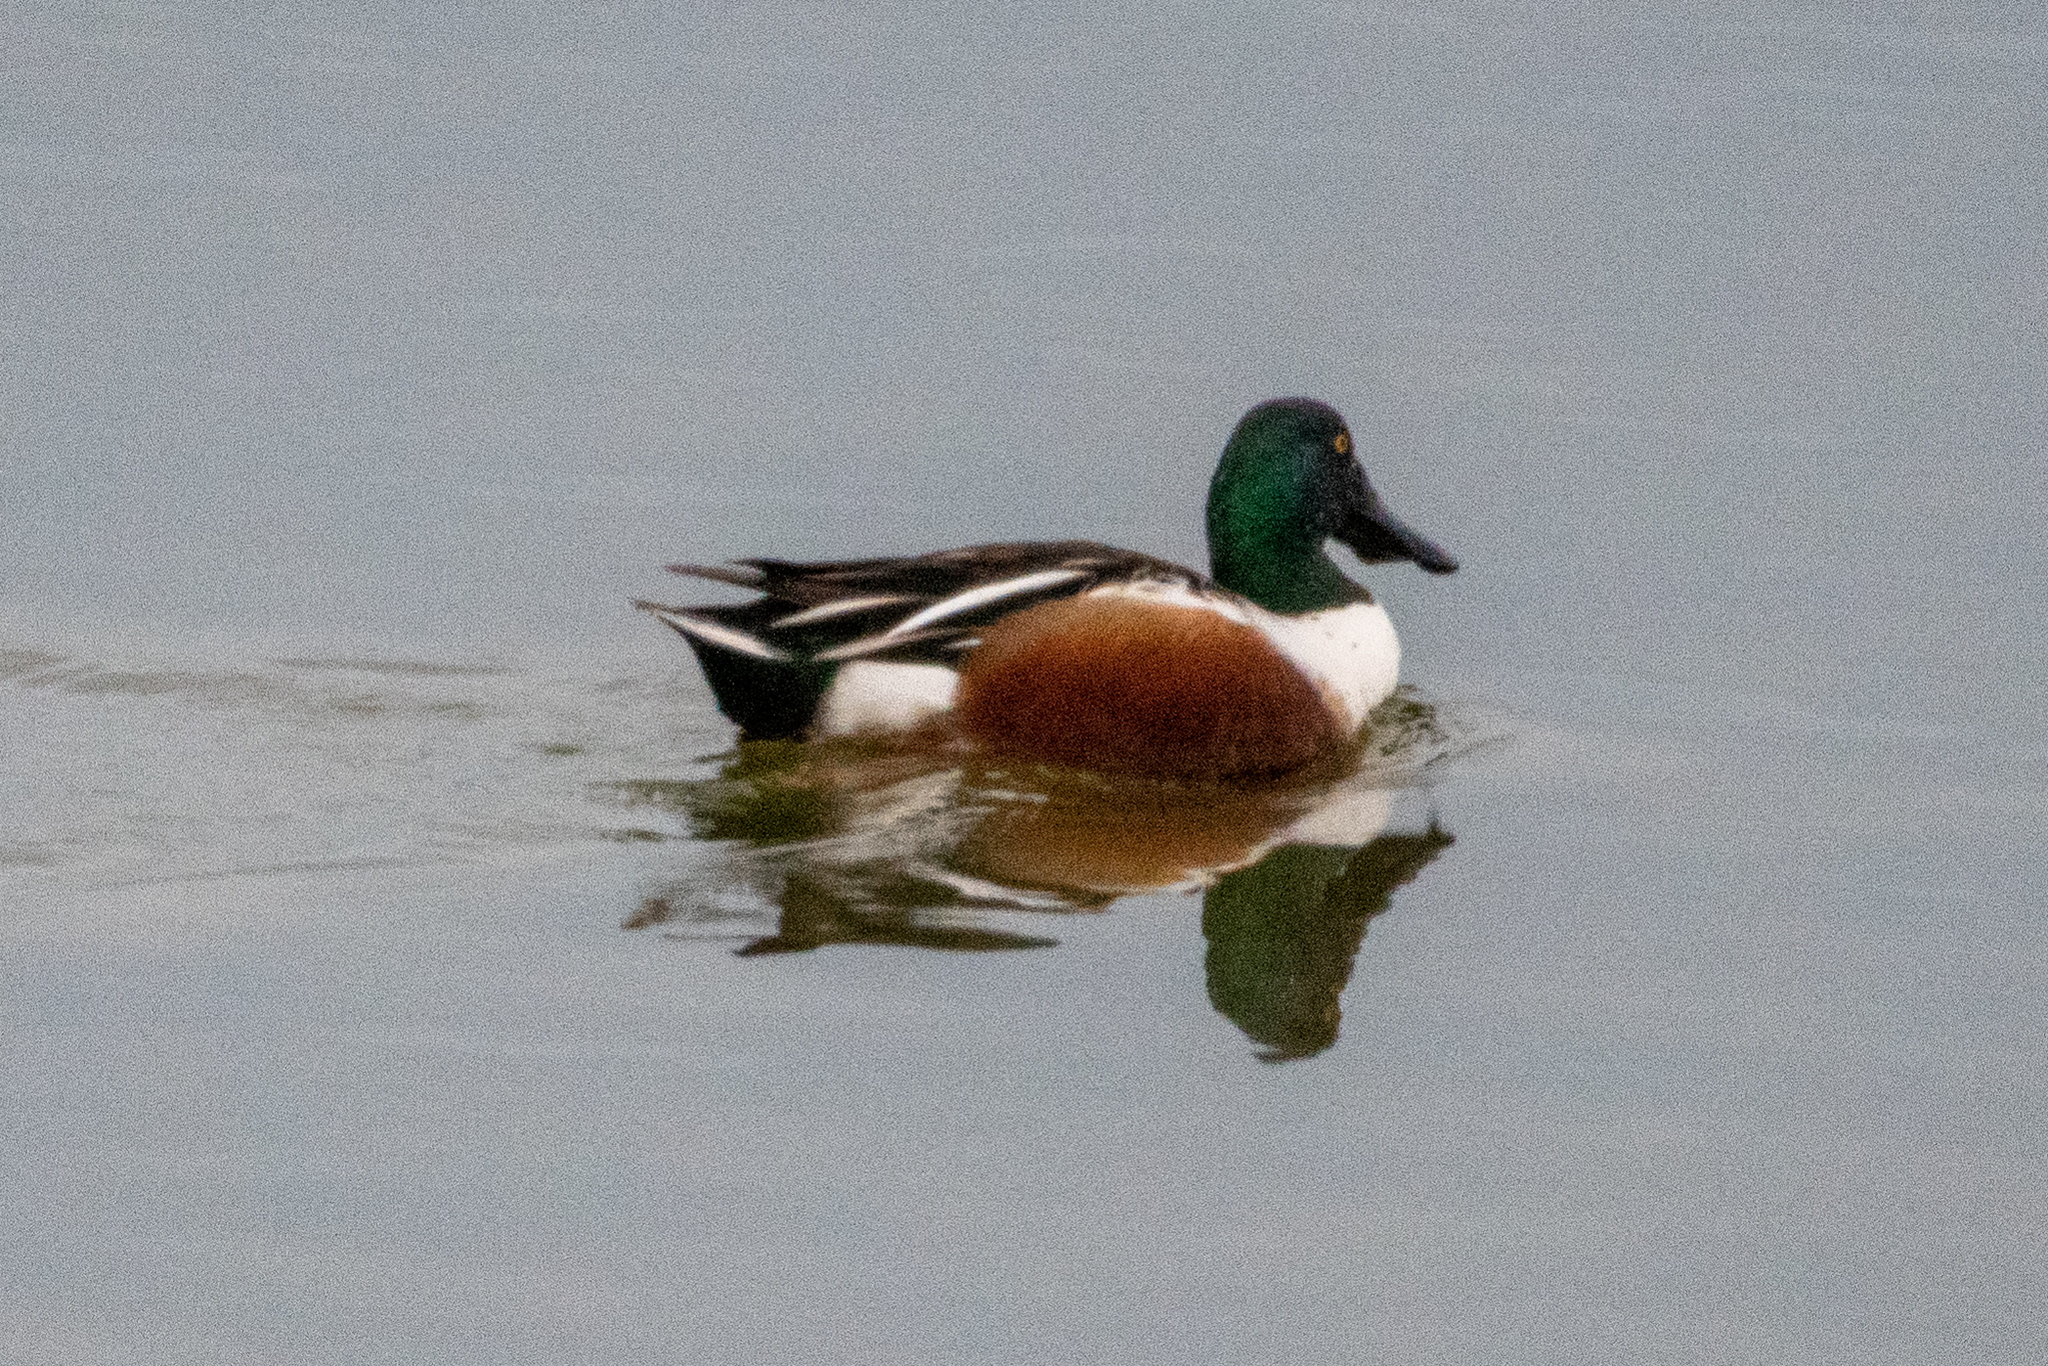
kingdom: Animalia
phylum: Chordata
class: Aves
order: Anseriformes
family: Anatidae
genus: Spatula
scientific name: Spatula clypeata
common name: Northern shoveler
